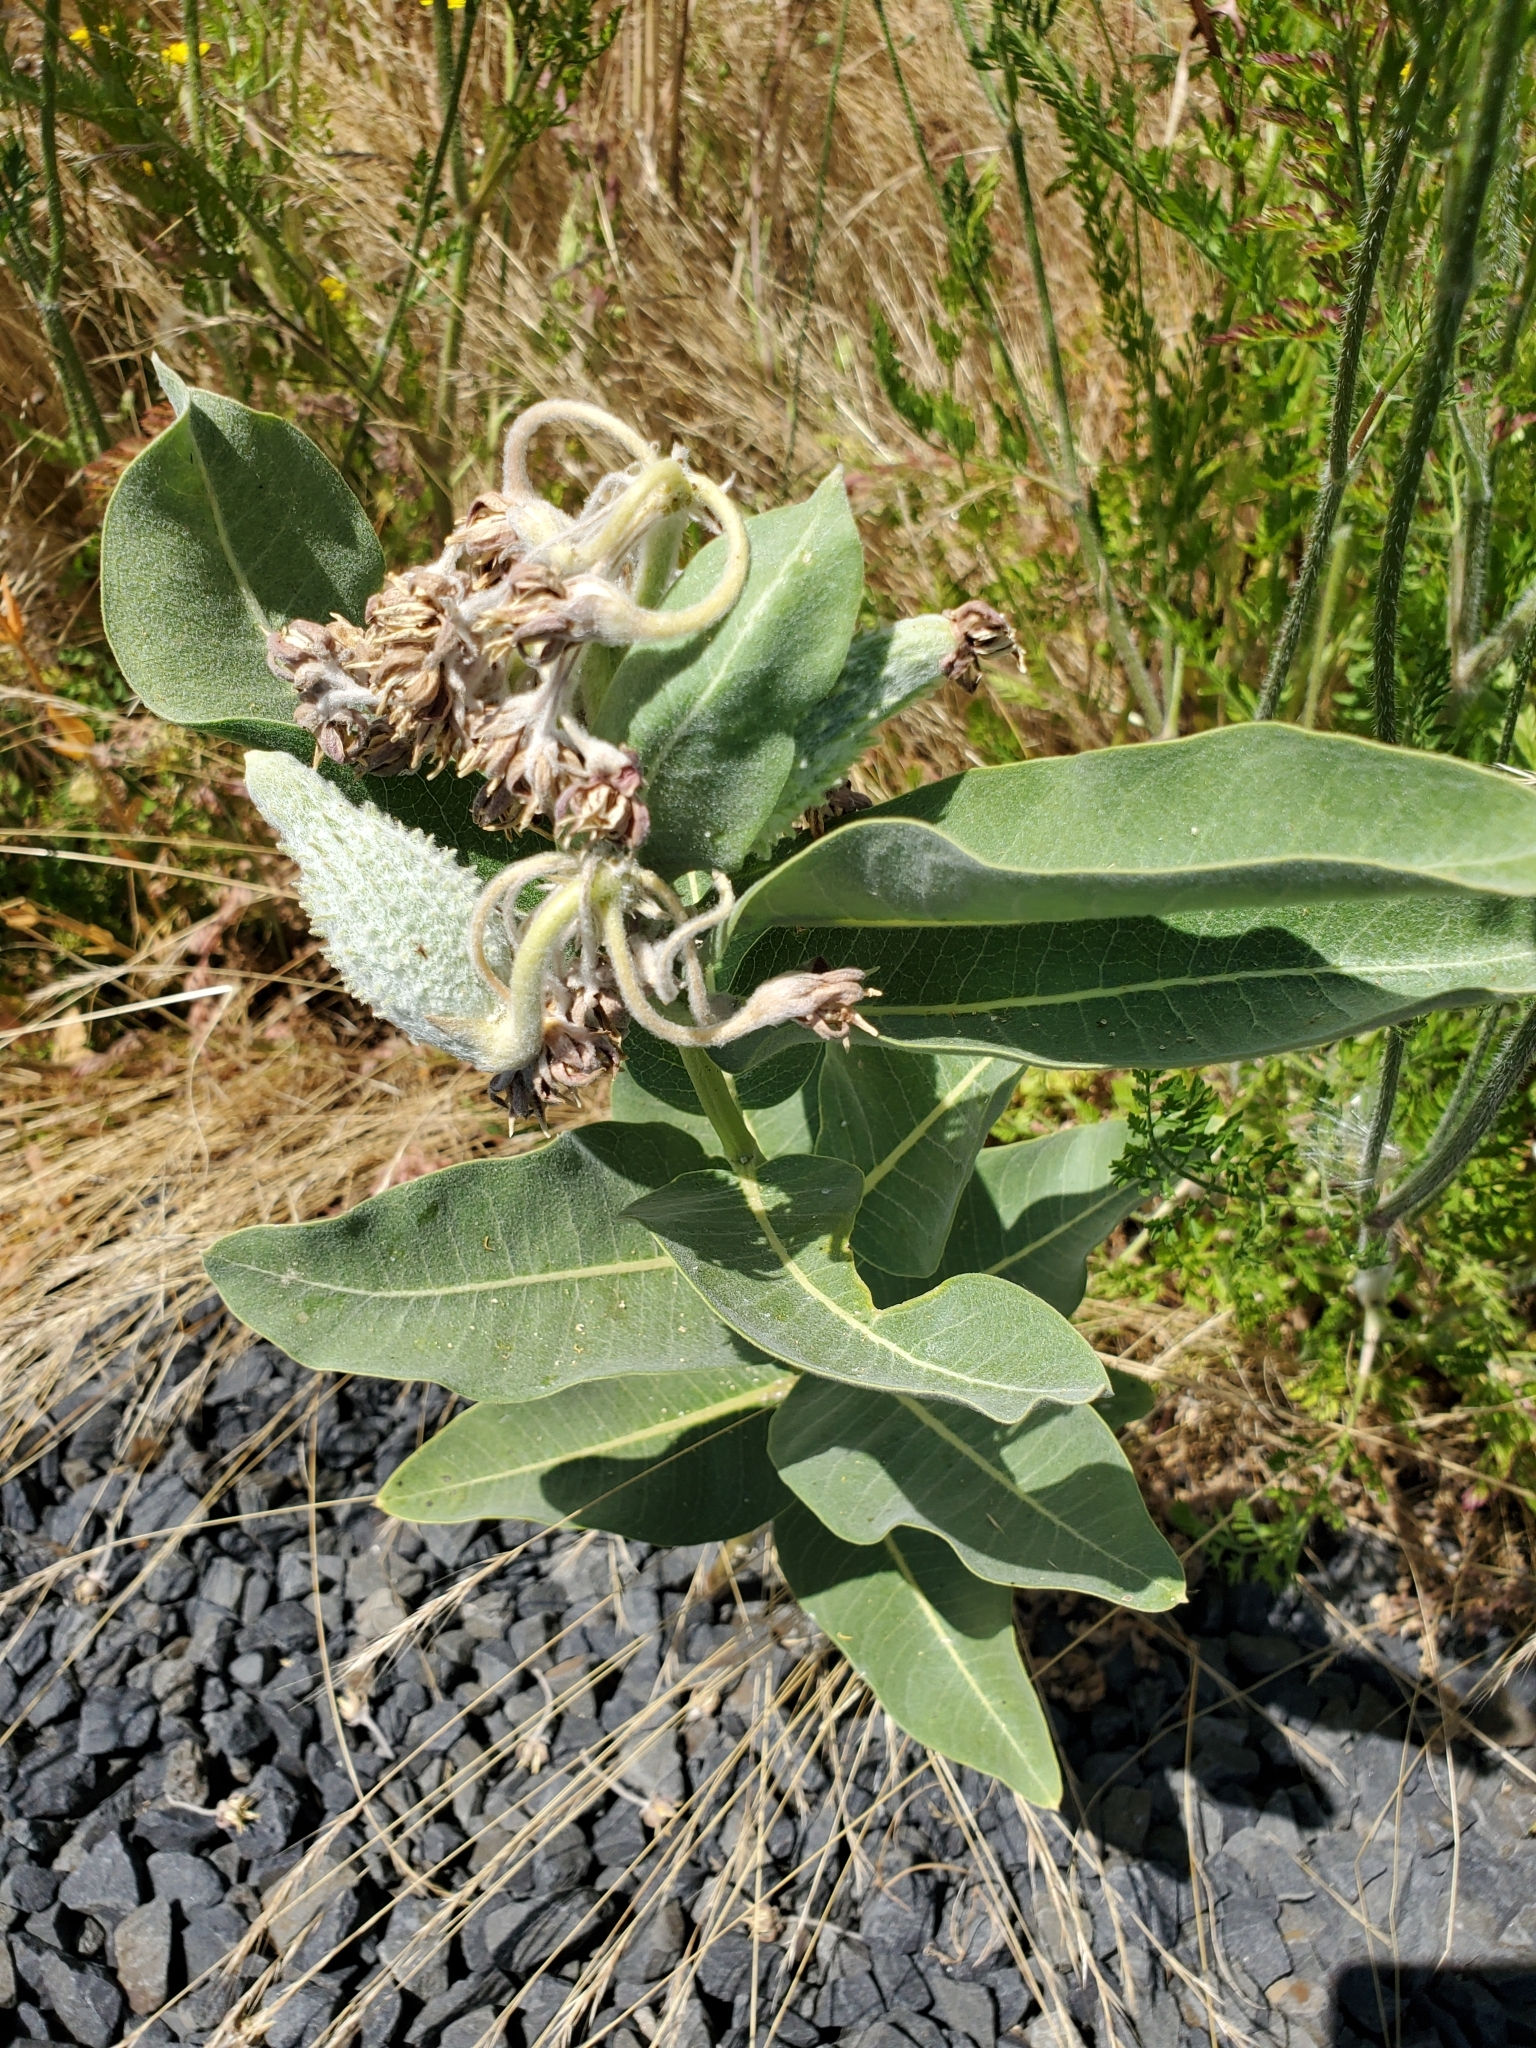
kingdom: Plantae
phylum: Tracheophyta
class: Magnoliopsida
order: Gentianales
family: Apocynaceae
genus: Asclepias
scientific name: Asclepias speciosa
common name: Showy milkweed
